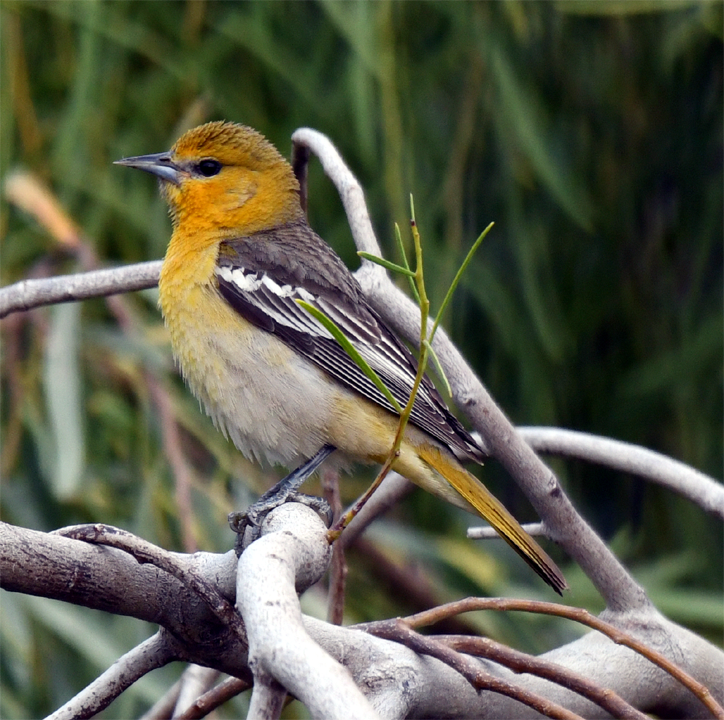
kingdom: Animalia
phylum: Chordata
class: Aves
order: Passeriformes
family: Icteridae
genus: Icterus
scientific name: Icterus bullockii
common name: Bullock's oriole
